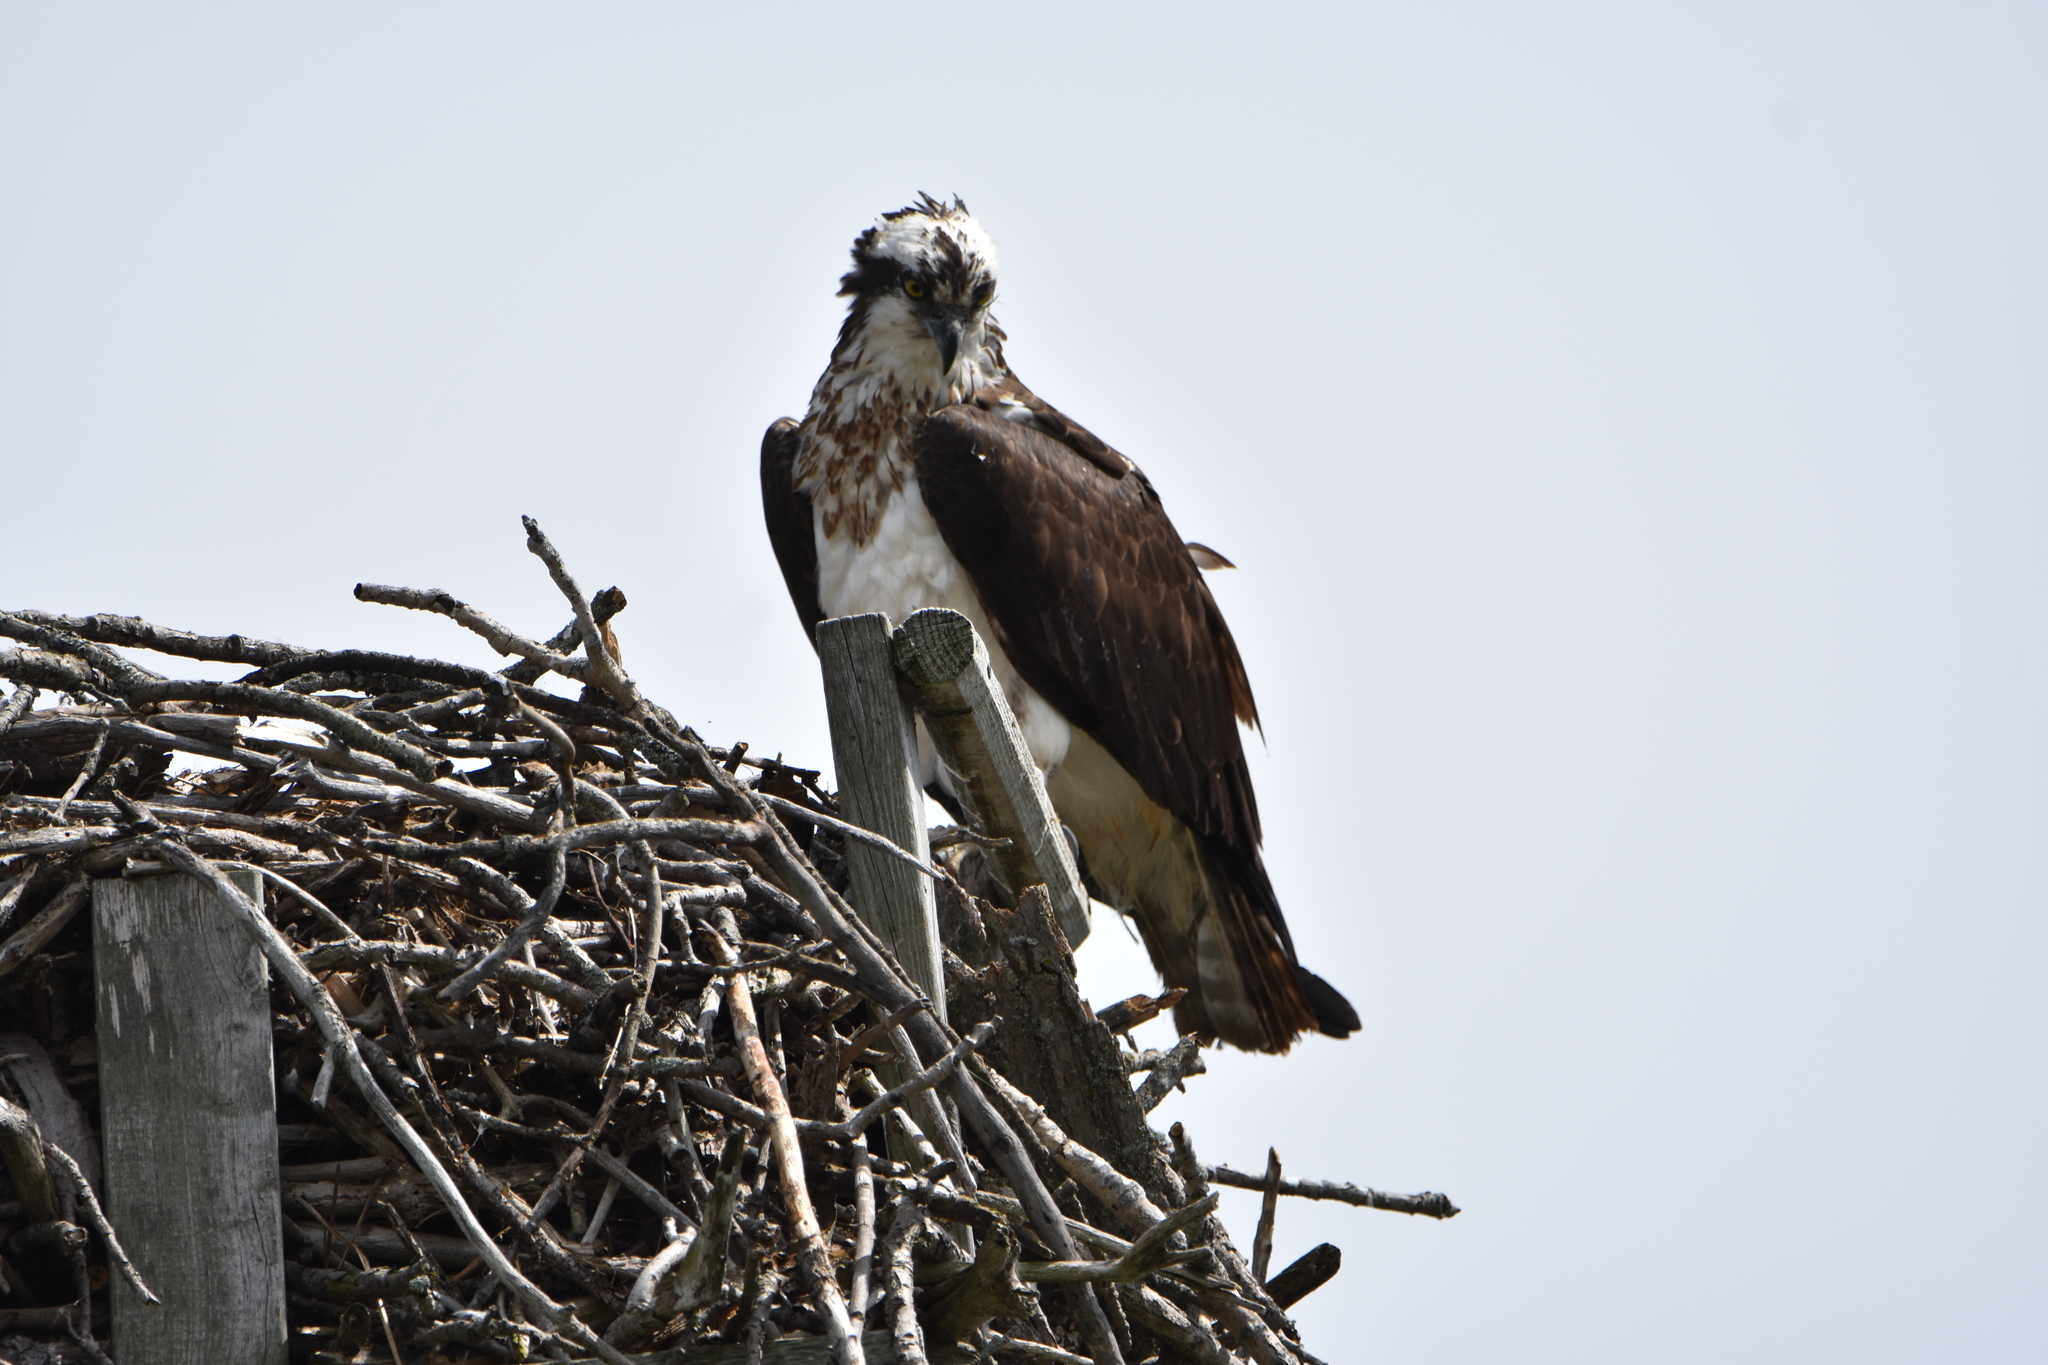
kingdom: Animalia
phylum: Chordata
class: Aves
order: Accipitriformes
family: Pandionidae
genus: Pandion
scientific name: Pandion haliaetus
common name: Osprey
